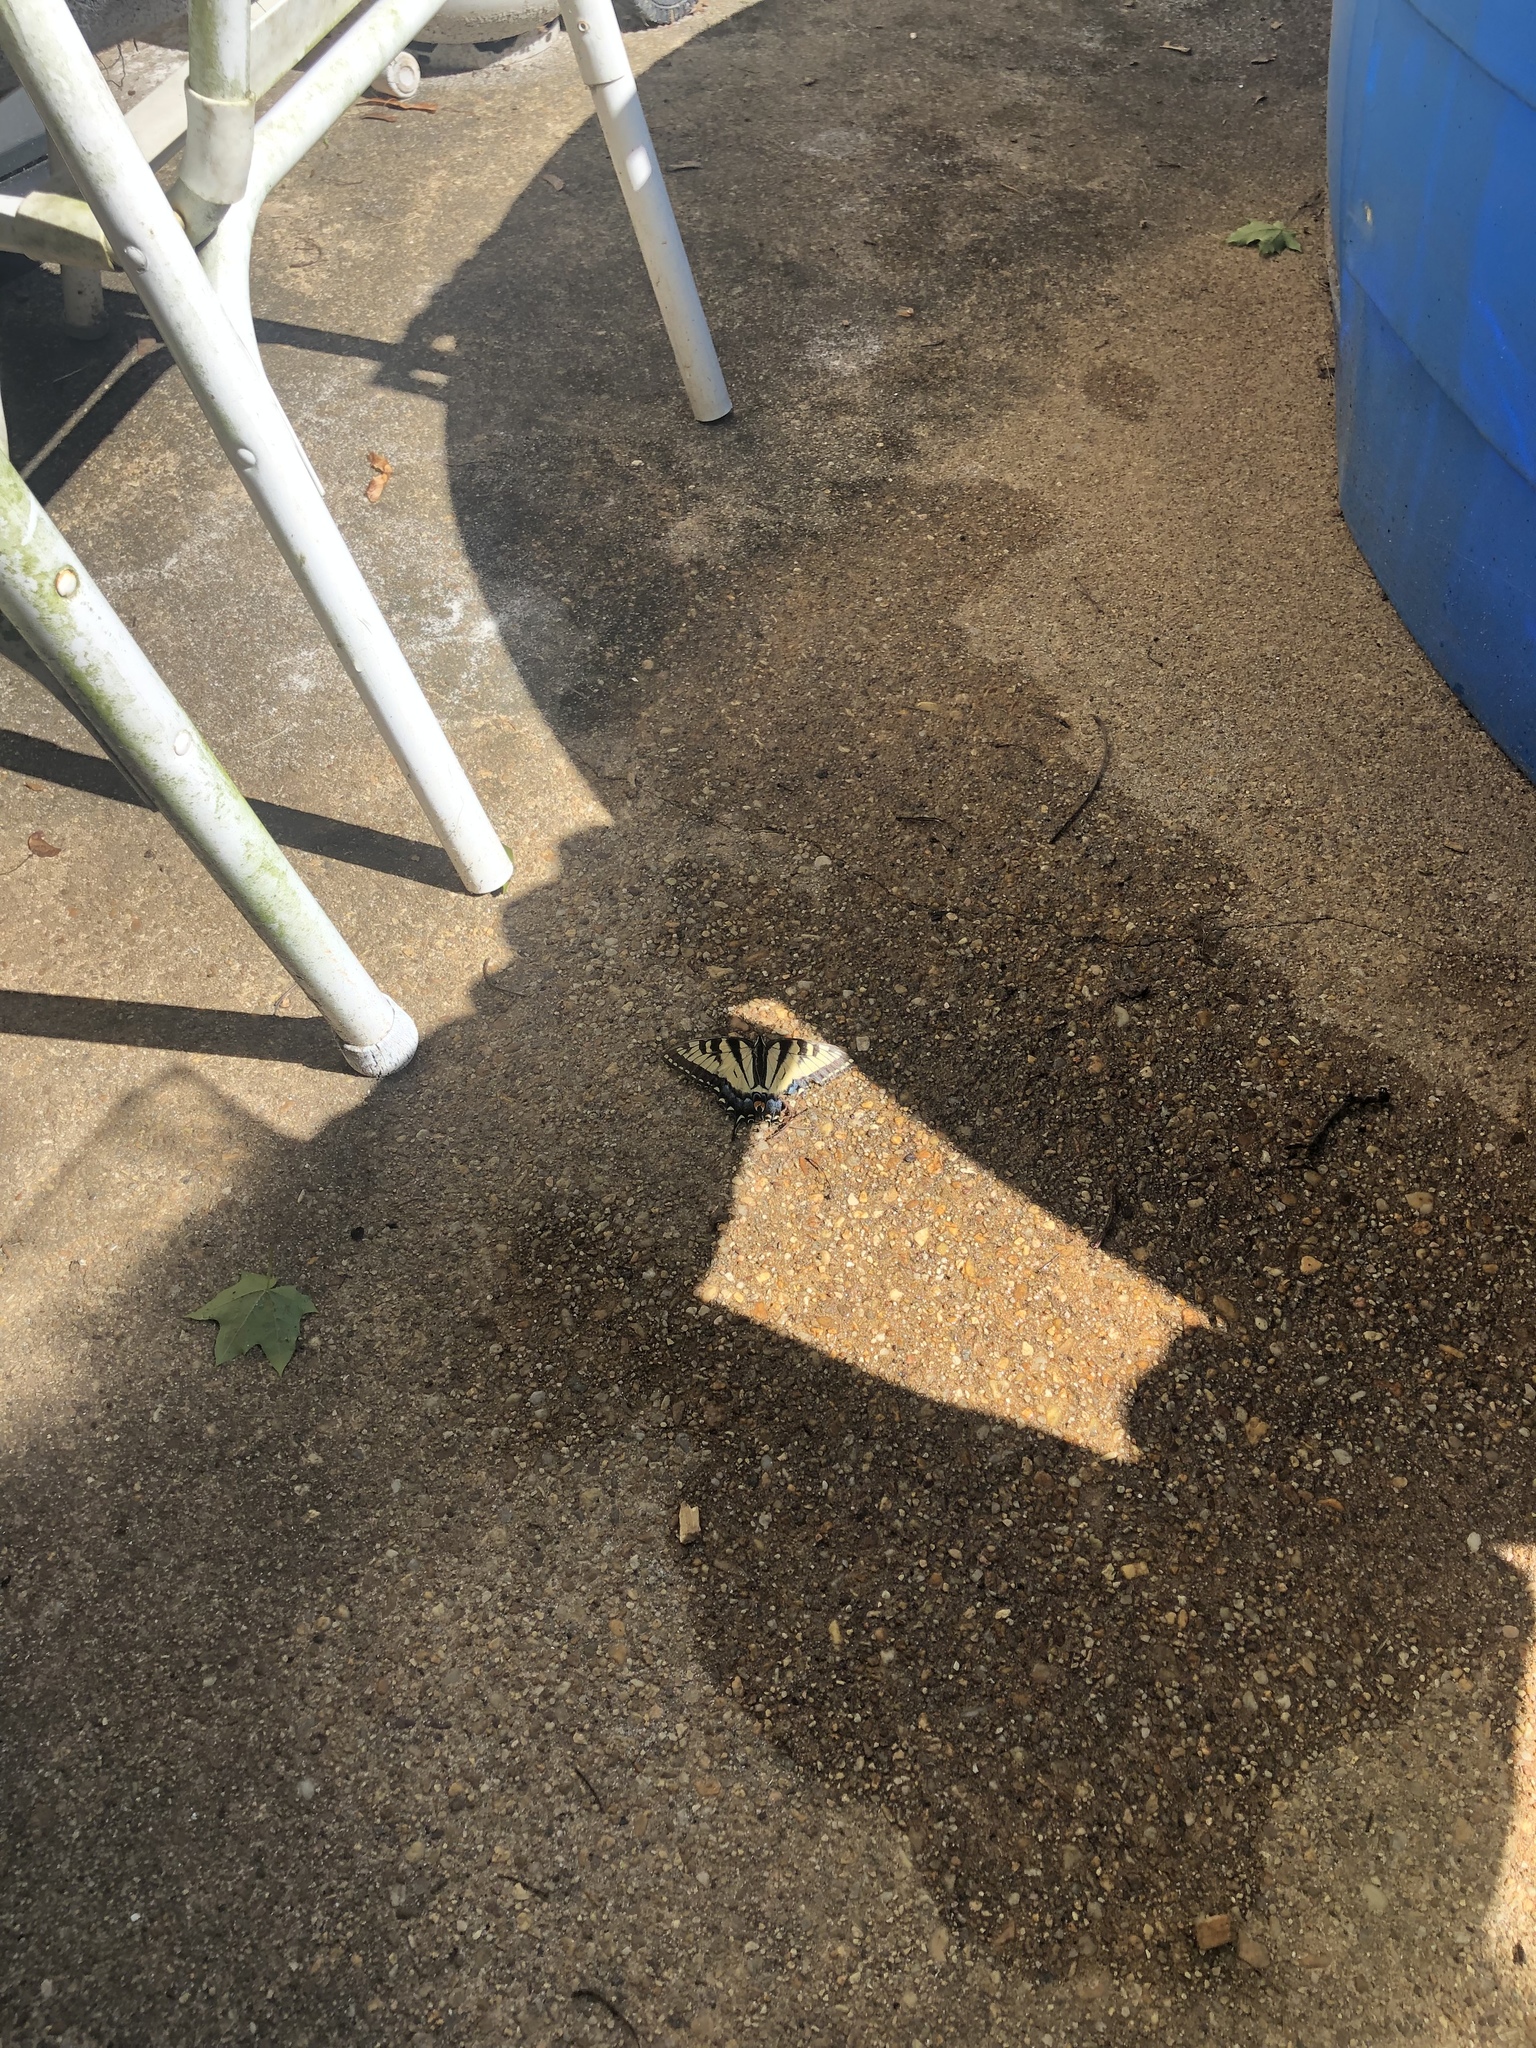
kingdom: Animalia
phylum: Arthropoda
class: Insecta
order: Lepidoptera
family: Papilionidae
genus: Papilio
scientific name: Papilio glaucus
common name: Tiger swallowtail
